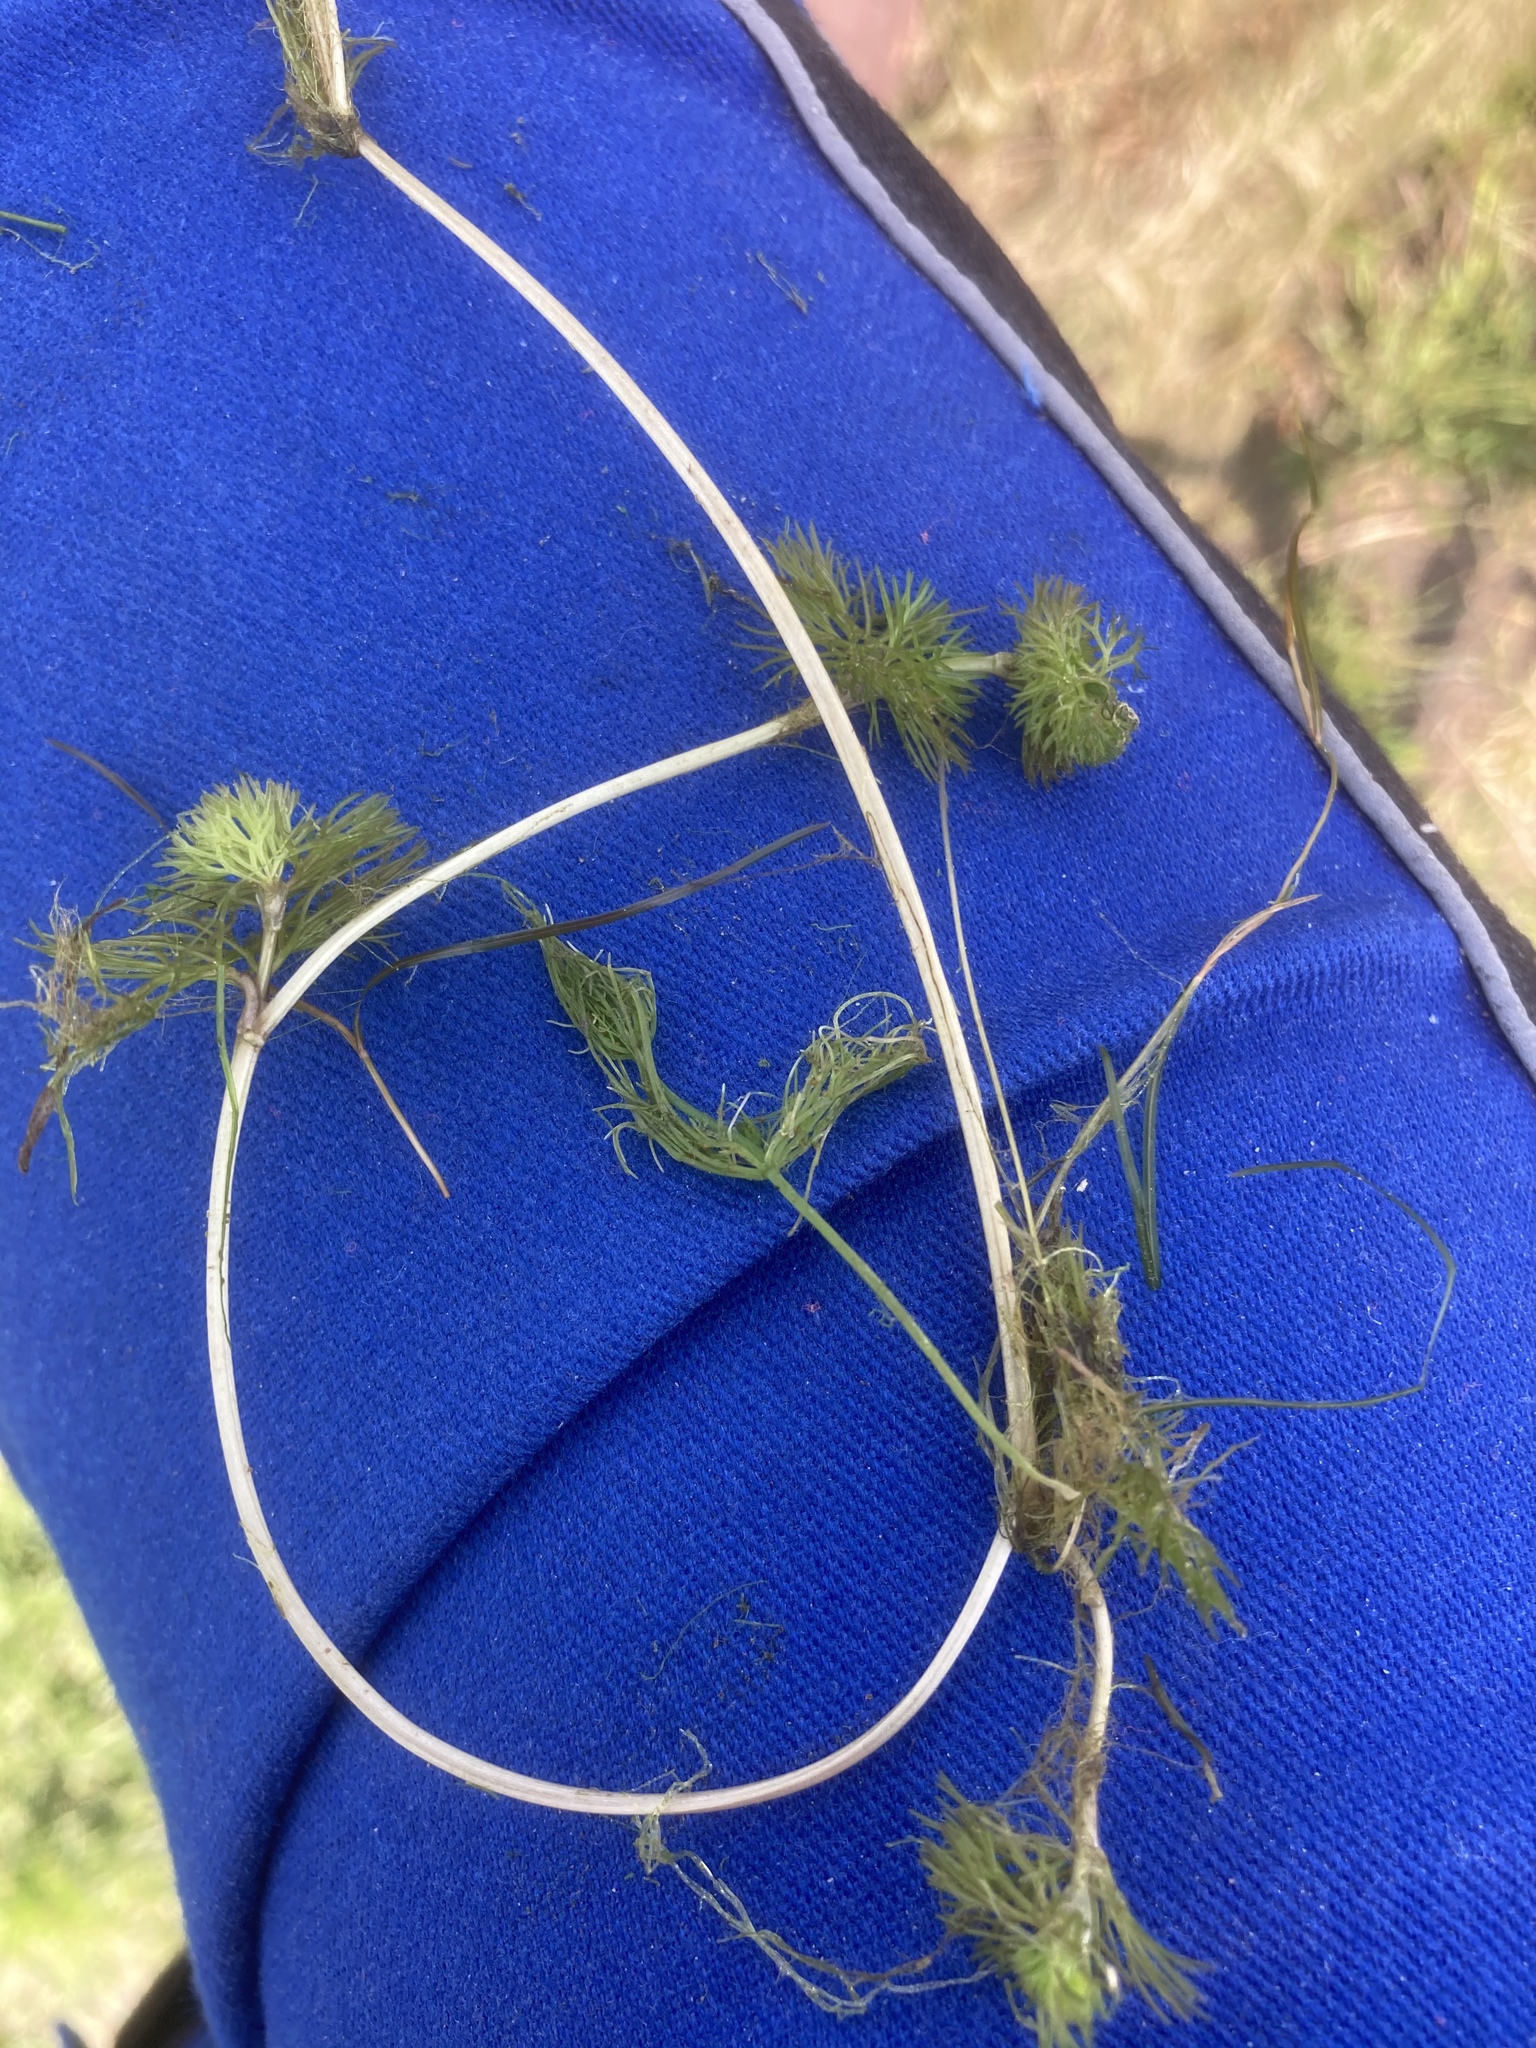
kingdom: Plantae
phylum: Charophyta
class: Charophyceae
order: Charales
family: Characeae
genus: Chara
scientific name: Chara vulgaris
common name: Common stonewort
